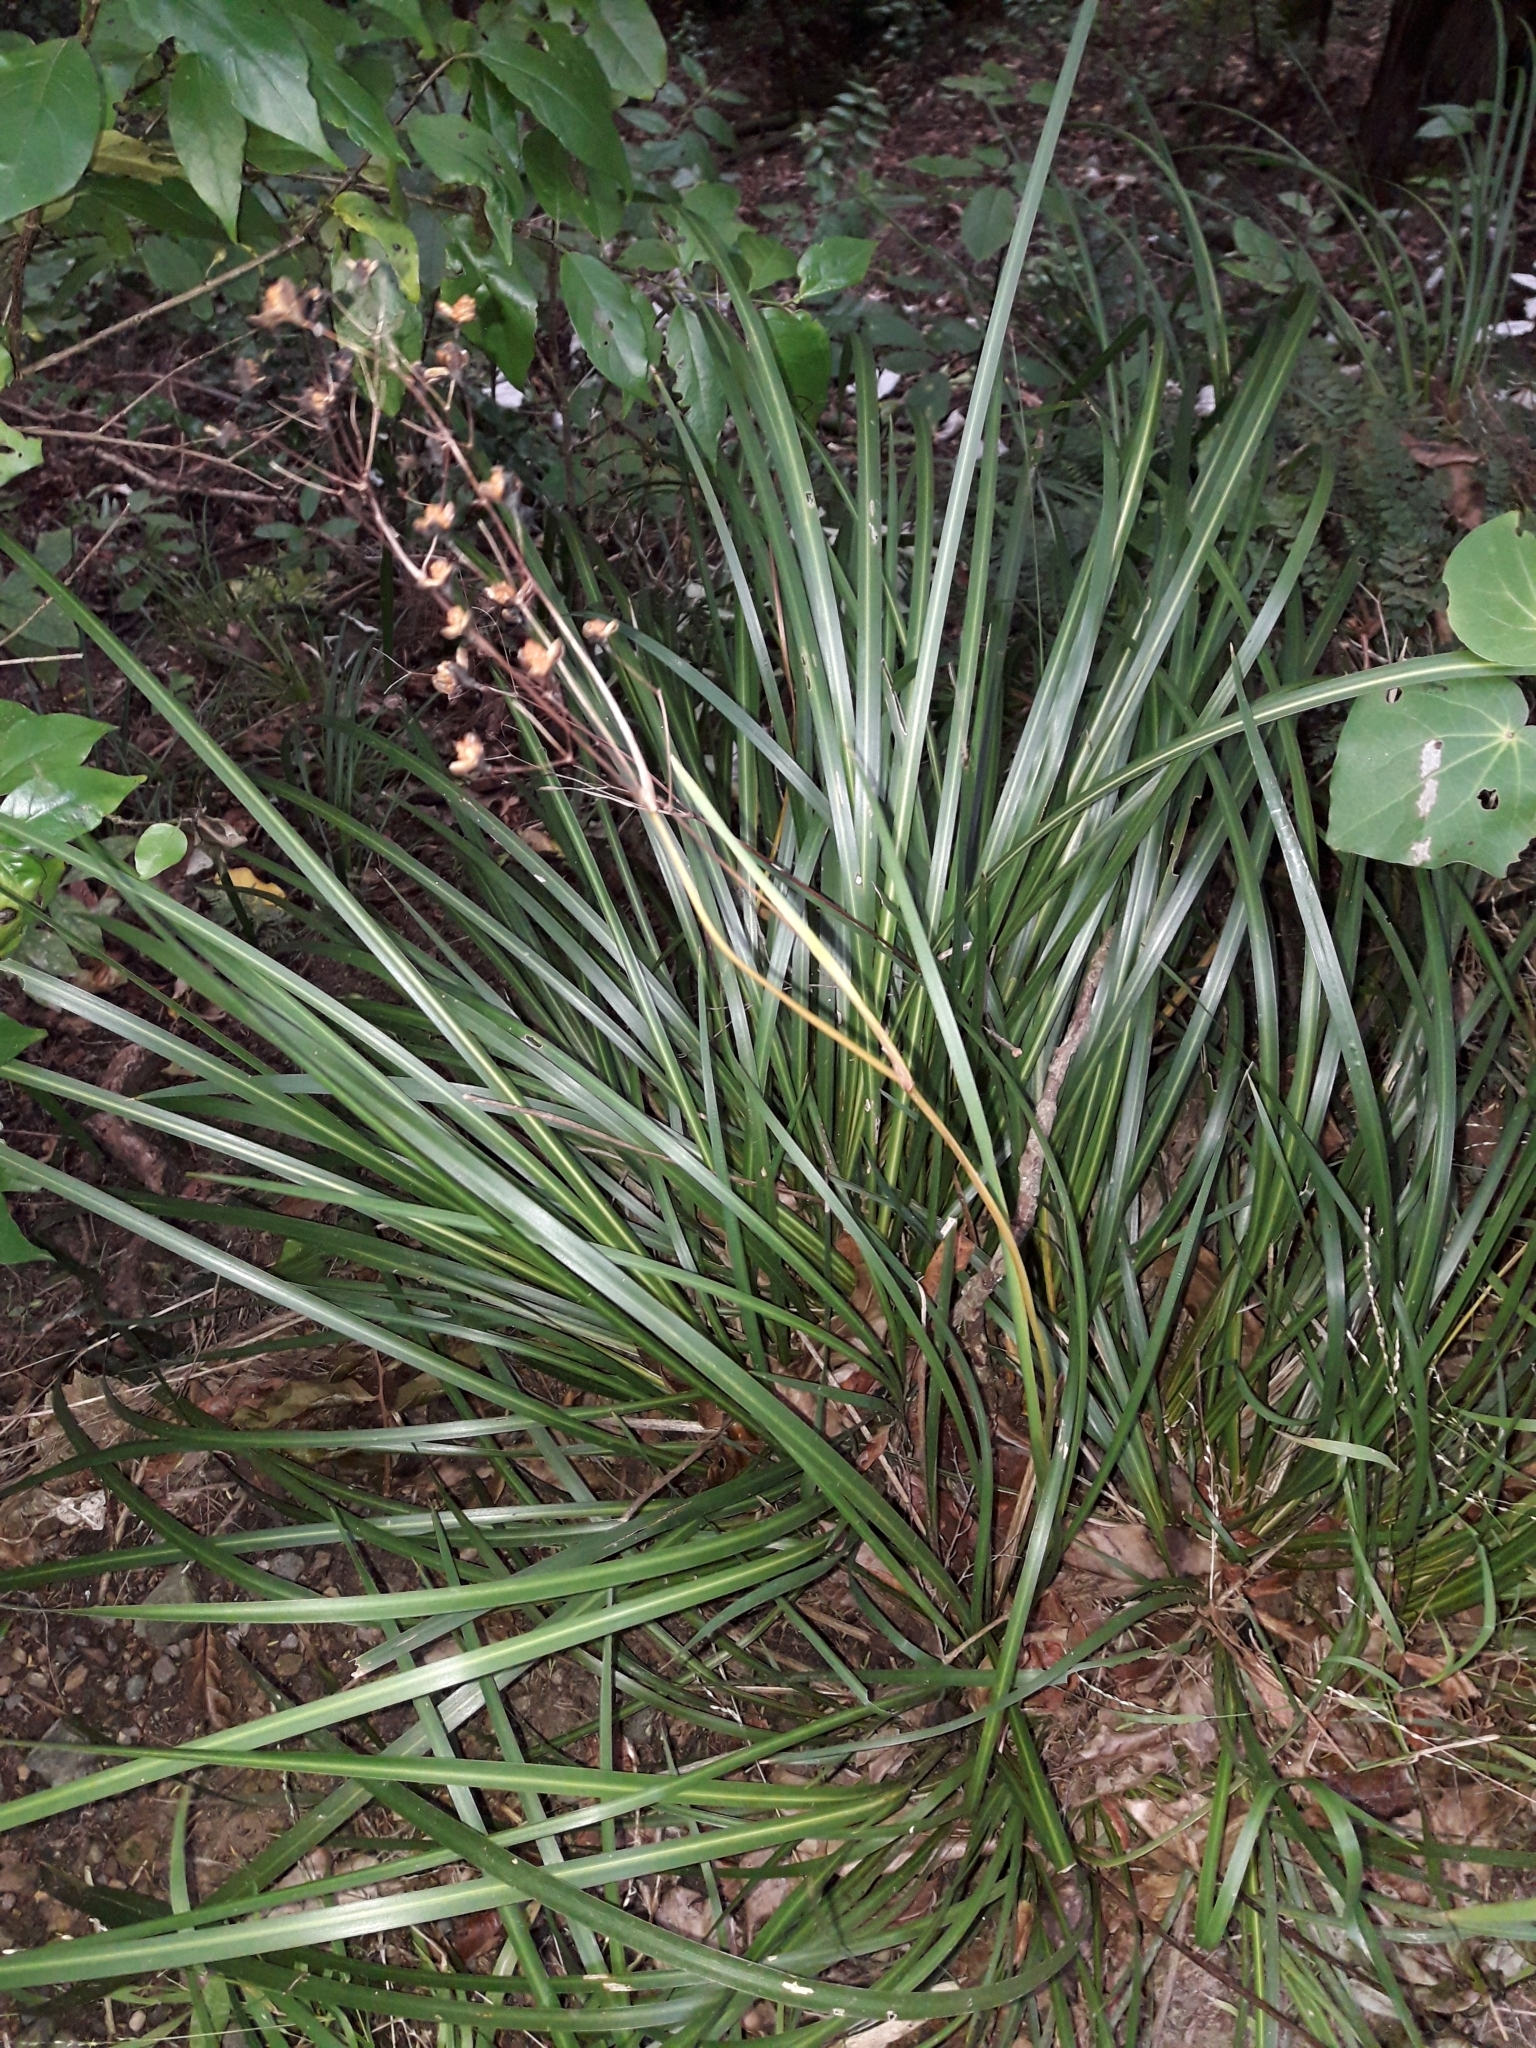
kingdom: Plantae
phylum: Tracheophyta
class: Liliopsida
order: Asparagales
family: Iridaceae
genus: Libertia
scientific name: Libertia grandiflora
